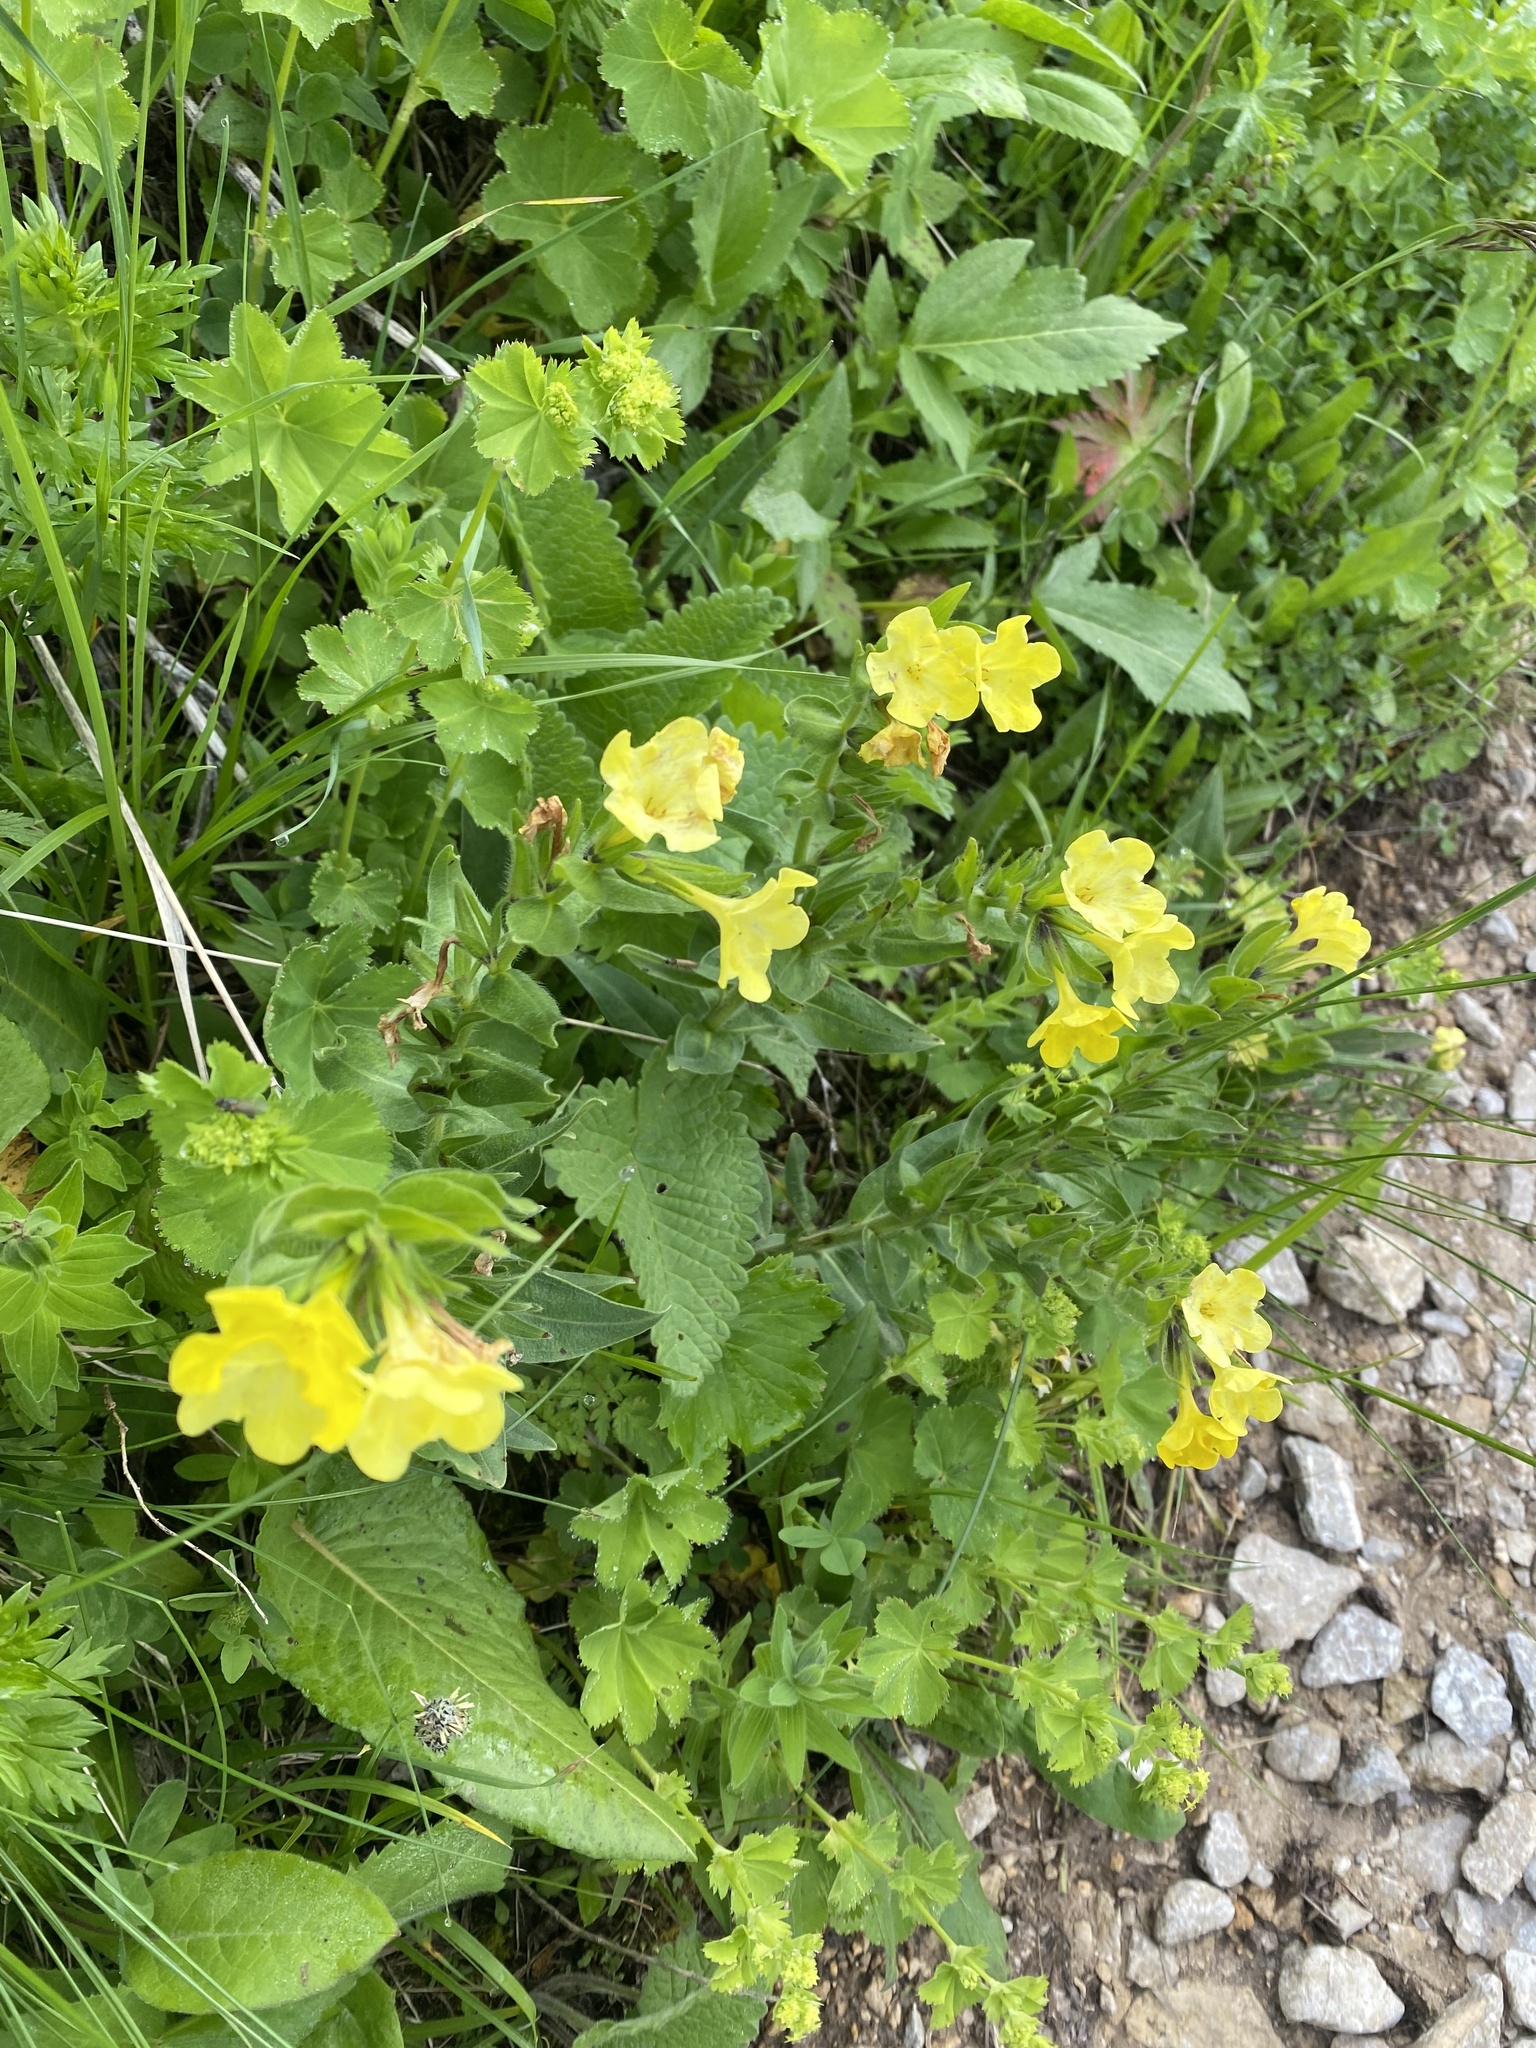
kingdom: Plantae
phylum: Tracheophyta
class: Magnoliopsida
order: Boraginales
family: Boraginaceae
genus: Huynhia
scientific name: Huynhia pulchra
